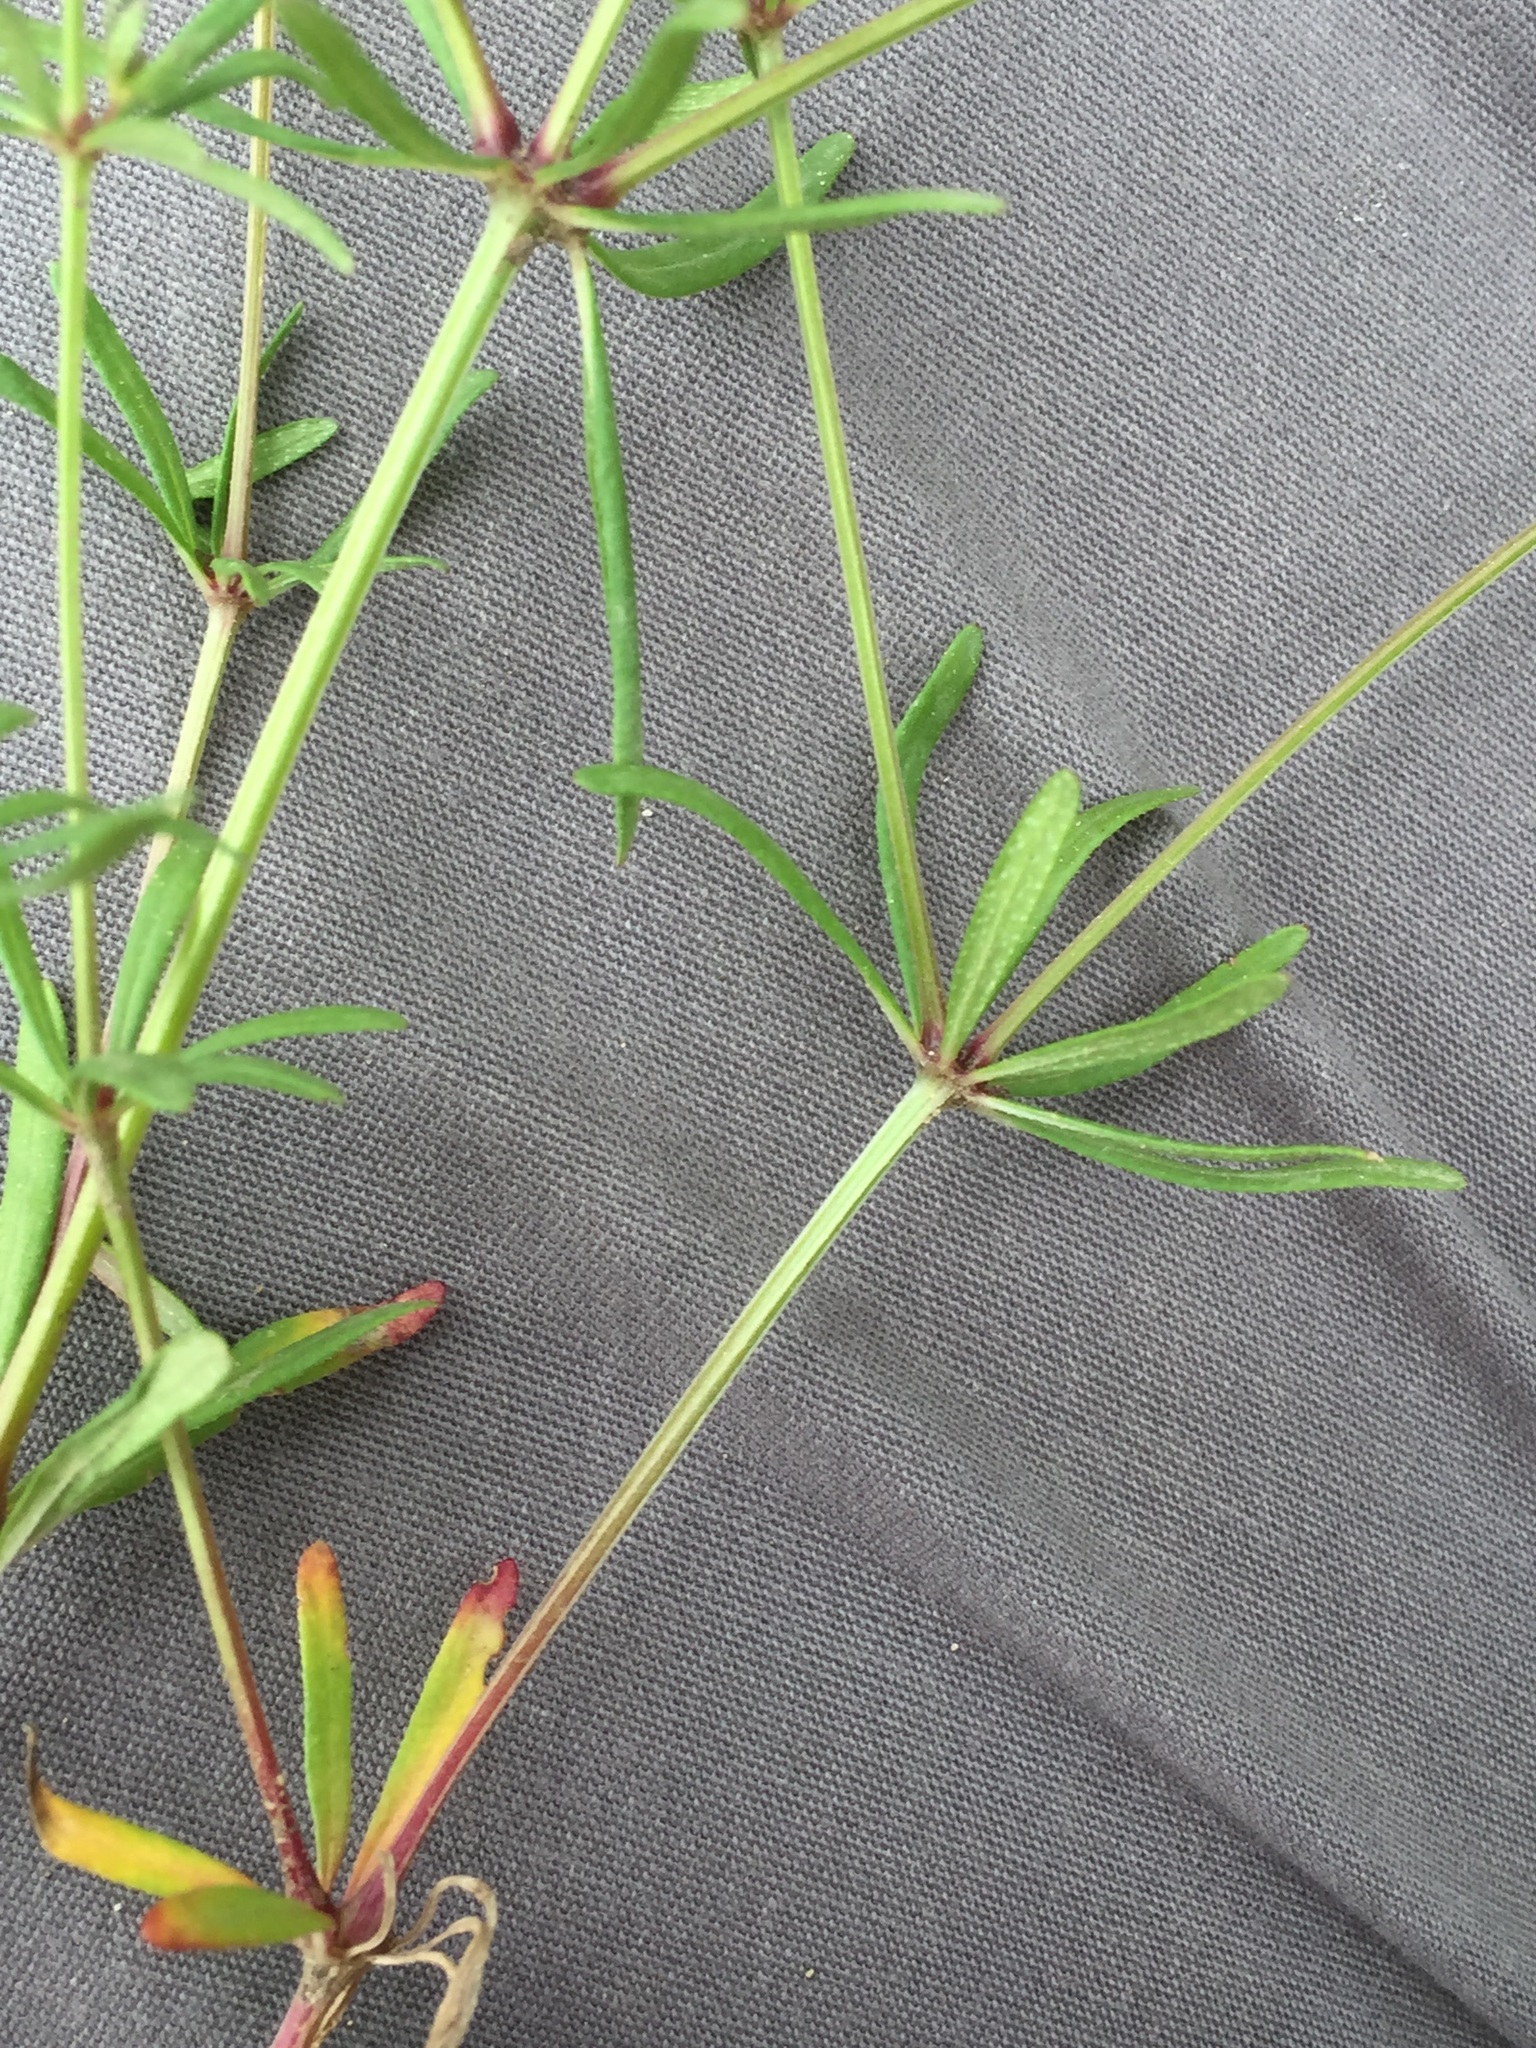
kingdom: Plantae
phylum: Tracheophyta
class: Magnoliopsida
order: Gentianales
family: Rubiaceae
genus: Asperula
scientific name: Asperula orientalis
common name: Oriental asperula
